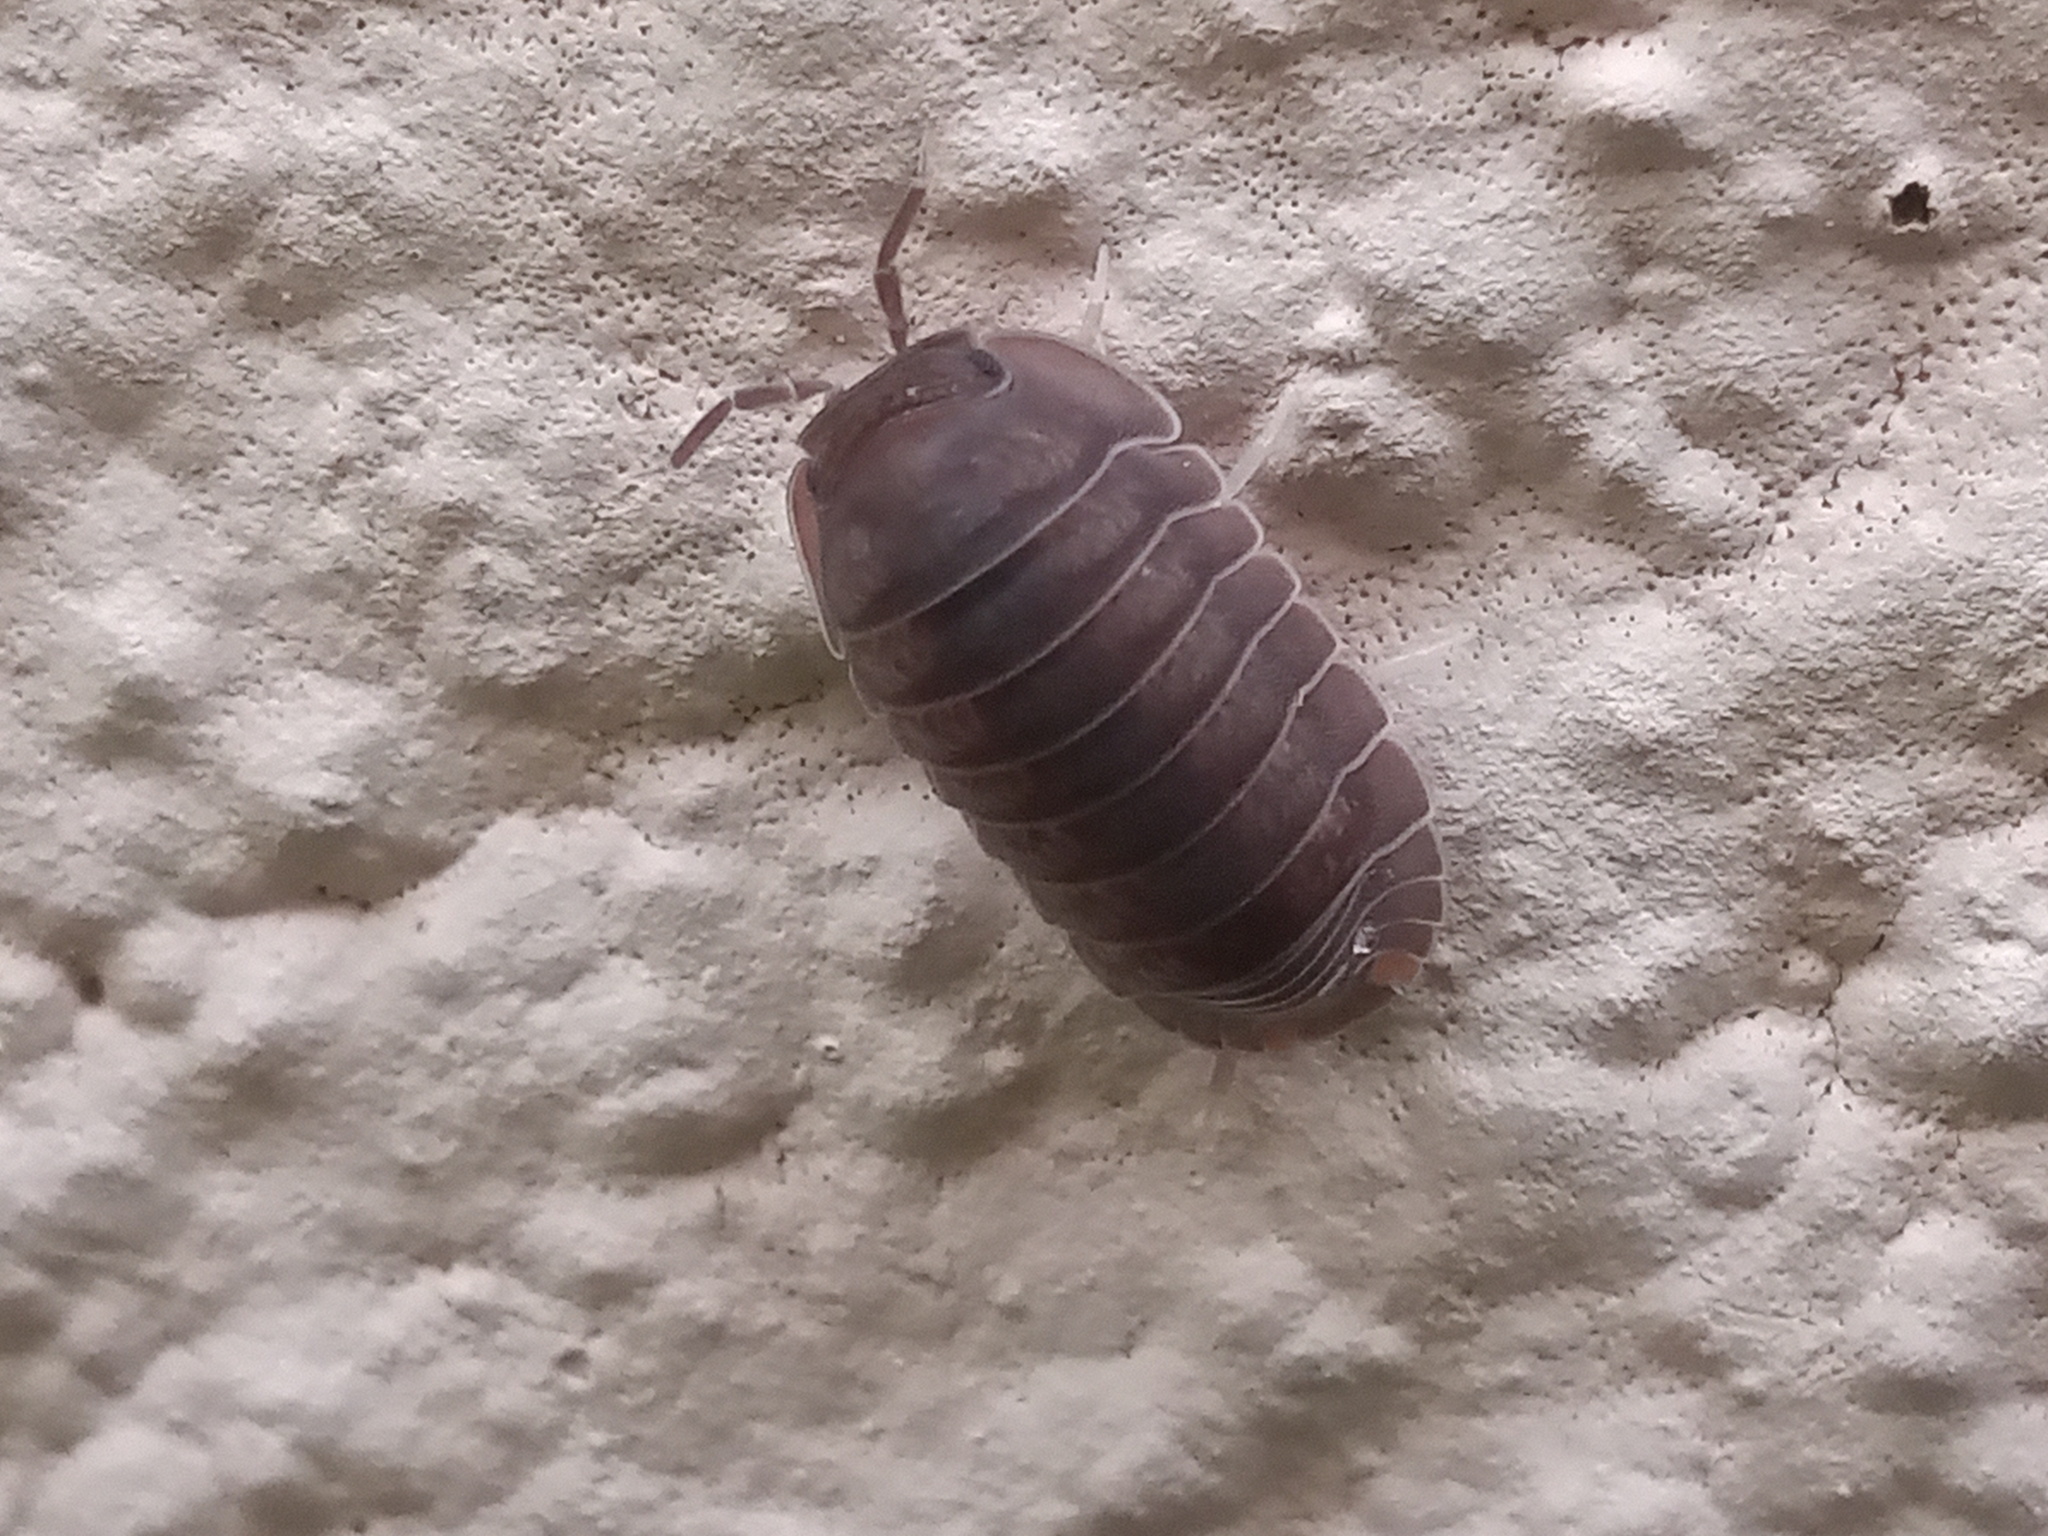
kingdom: Animalia
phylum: Arthropoda
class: Malacostraca
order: Isopoda
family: Armadillidae
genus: Cubaris
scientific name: Cubaris murina
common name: Pillbug
